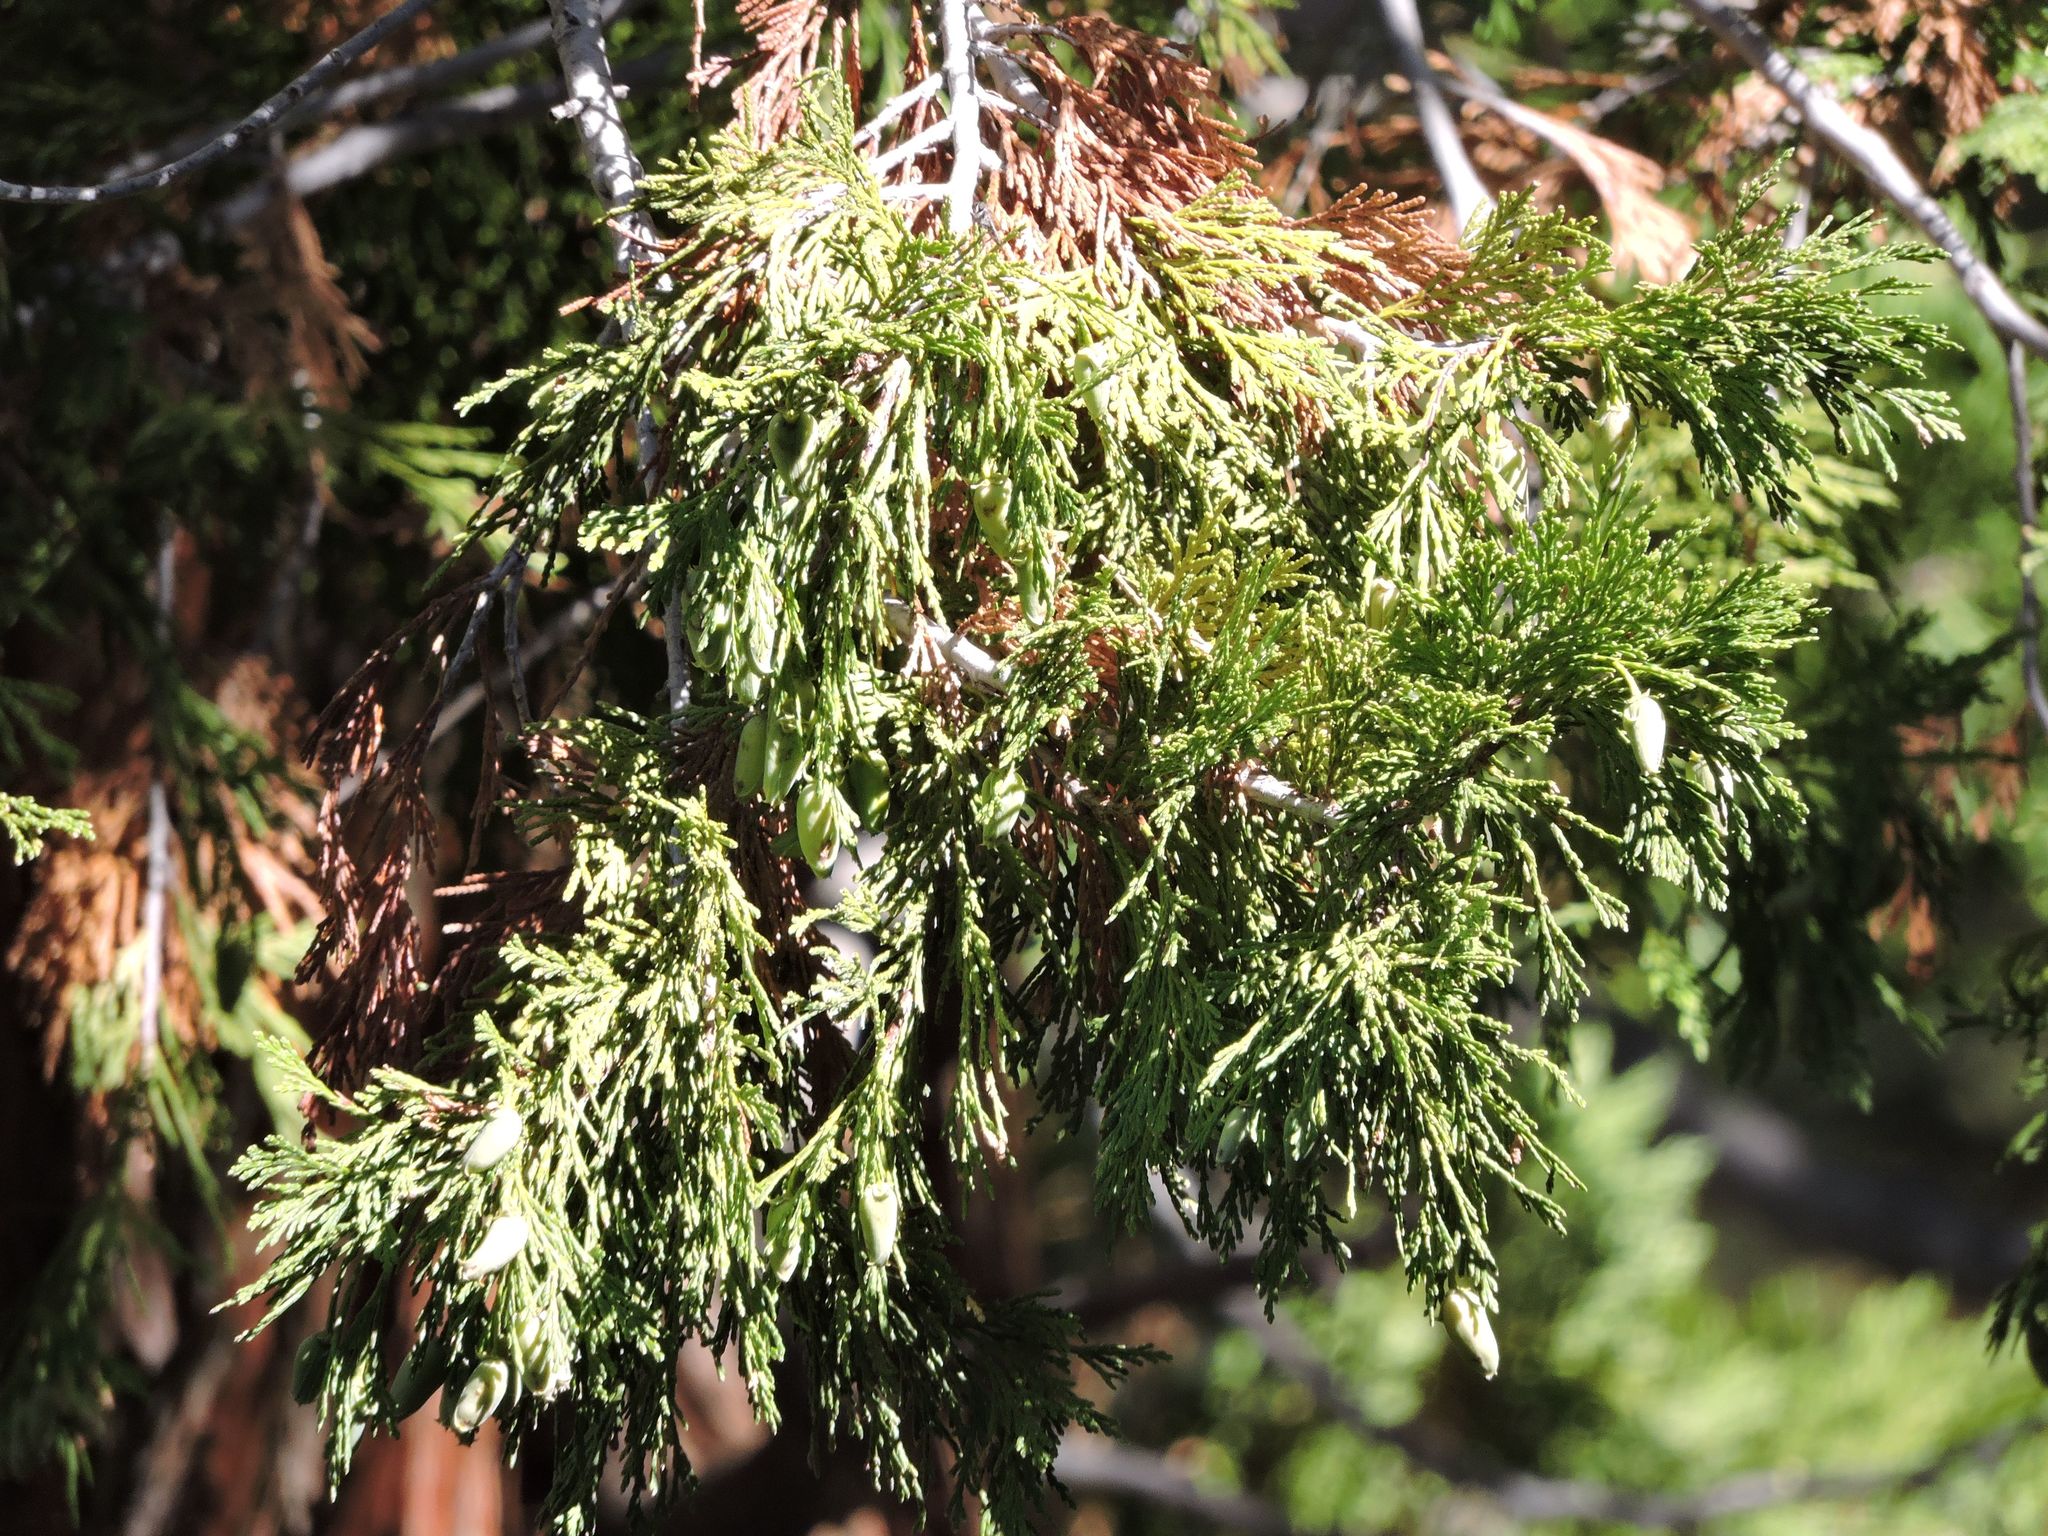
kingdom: Plantae
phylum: Tracheophyta
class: Pinopsida
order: Pinales
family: Cupressaceae
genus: Calocedrus
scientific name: Calocedrus decurrens
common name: Californian incense-cedar
